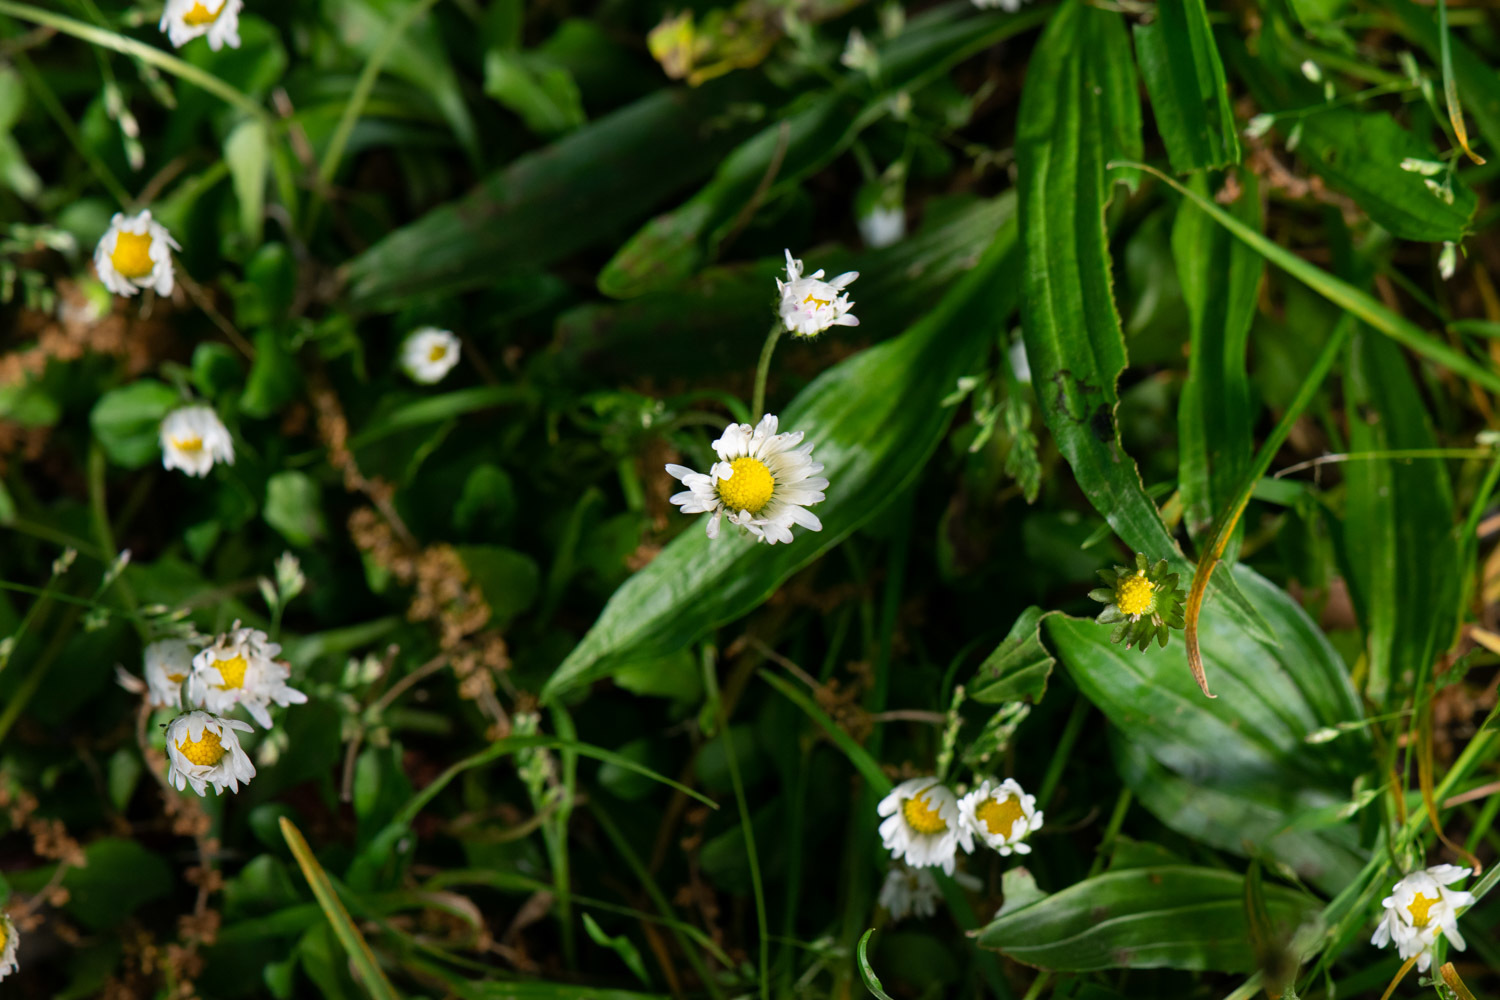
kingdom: Plantae
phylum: Tracheophyta
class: Magnoliopsida
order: Asterales
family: Asteraceae
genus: Bellis
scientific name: Bellis perennis
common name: Lawndaisy
